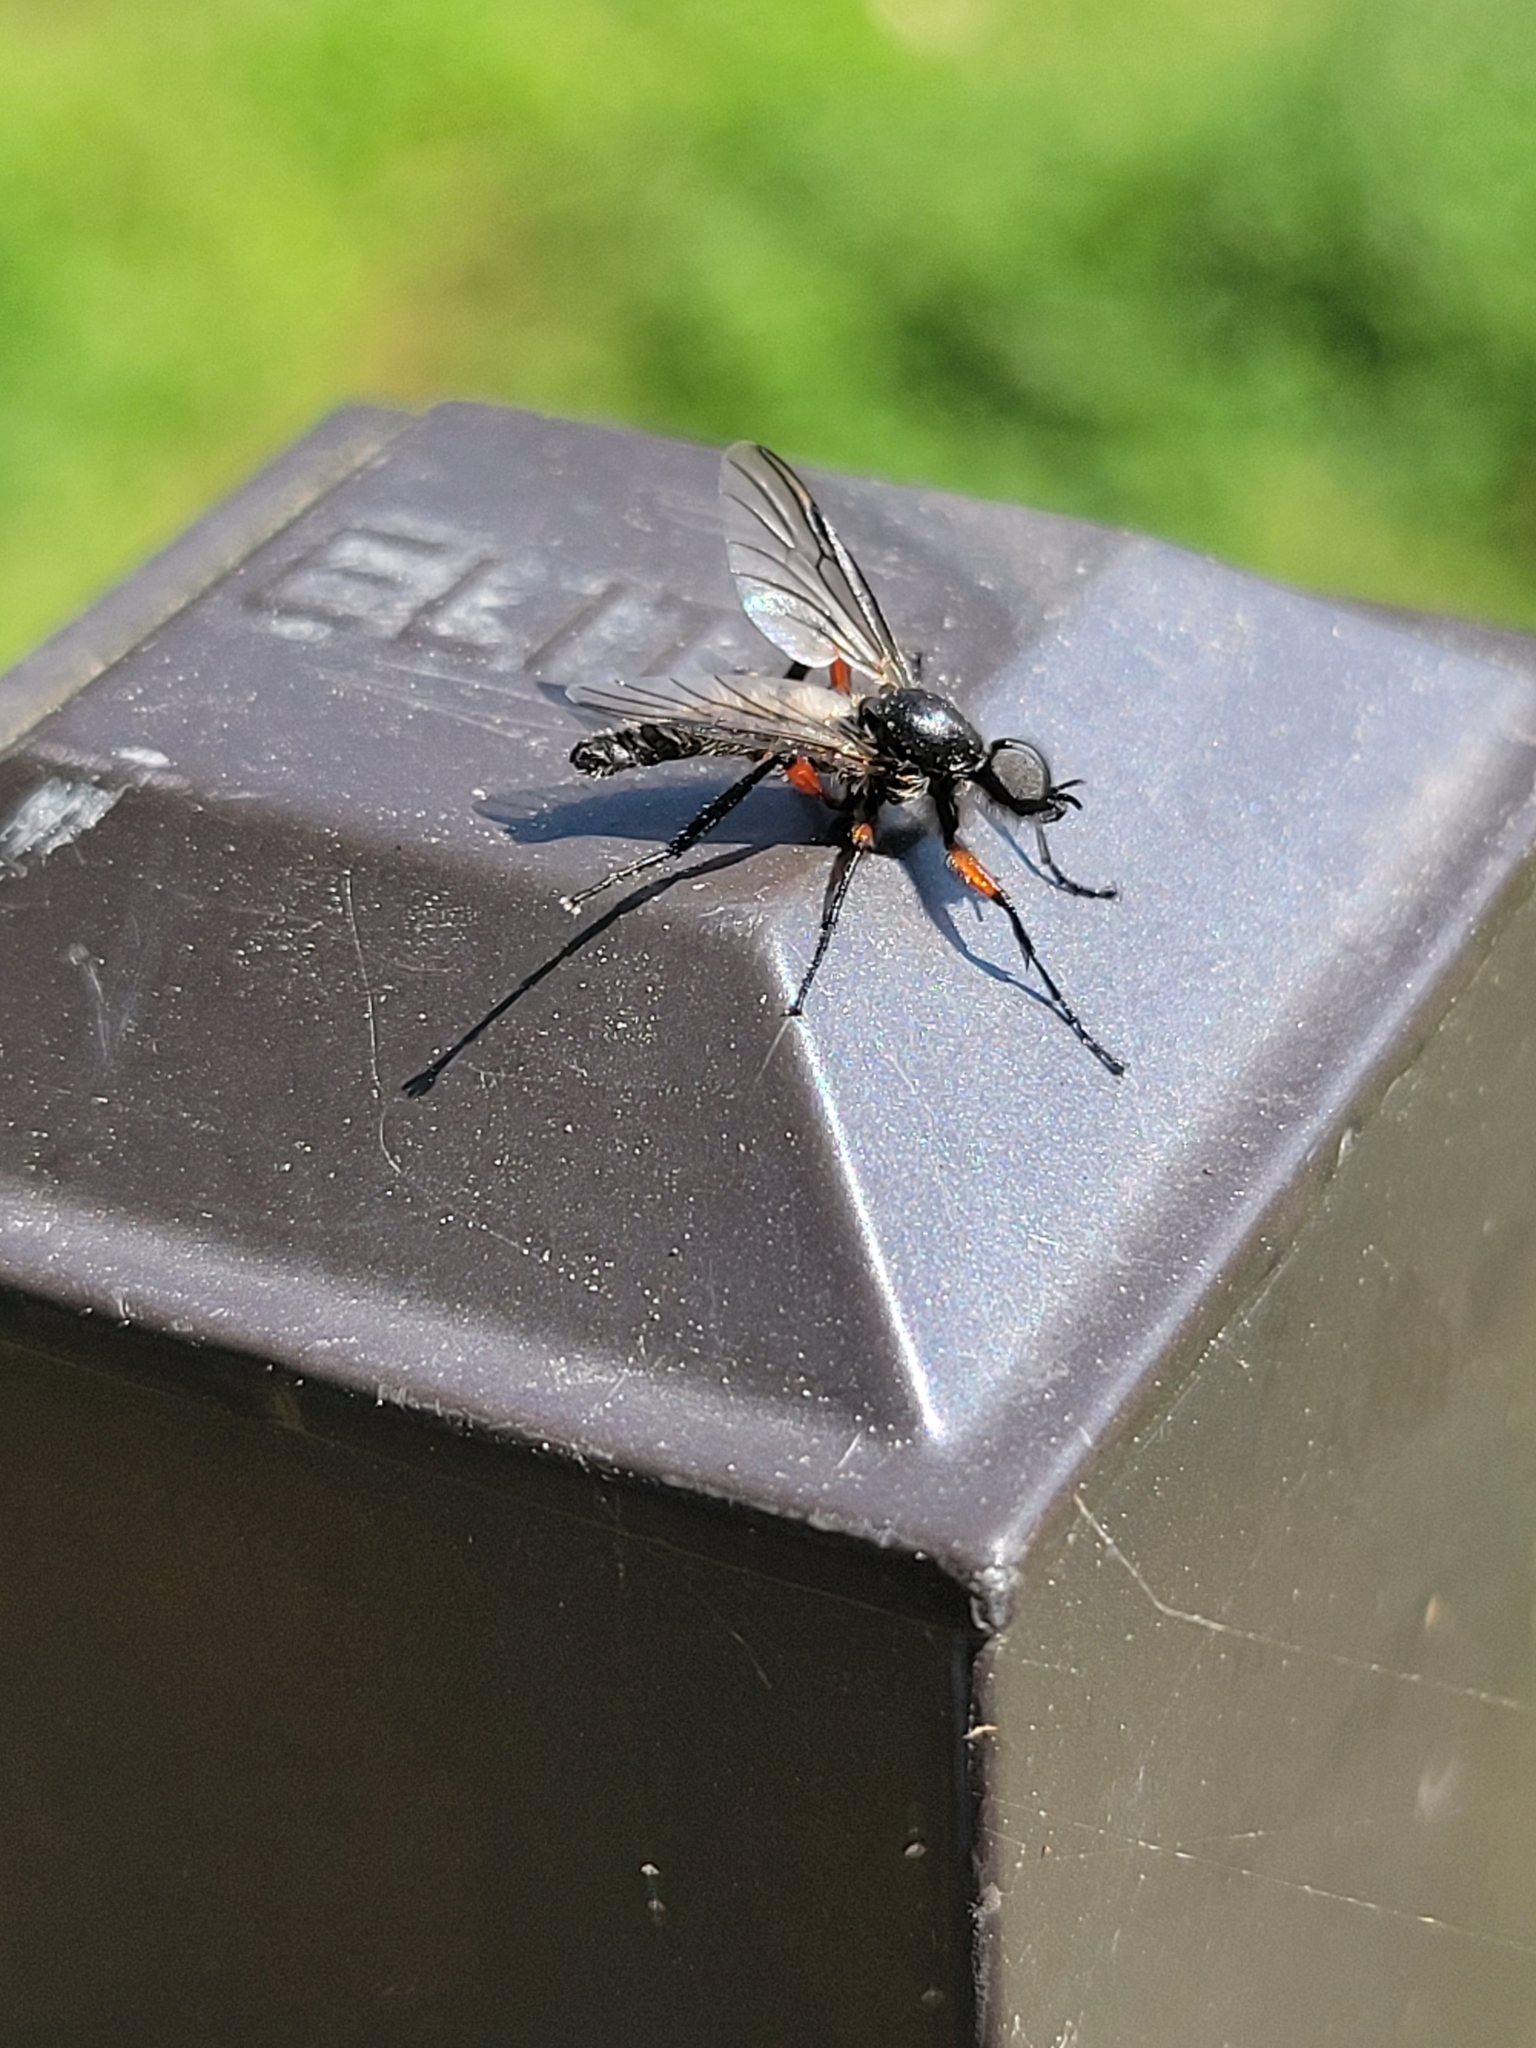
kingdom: Animalia
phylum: Arthropoda
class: Insecta
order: Diptera
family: Bibionidae
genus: Bibio
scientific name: Bibio femoratus
